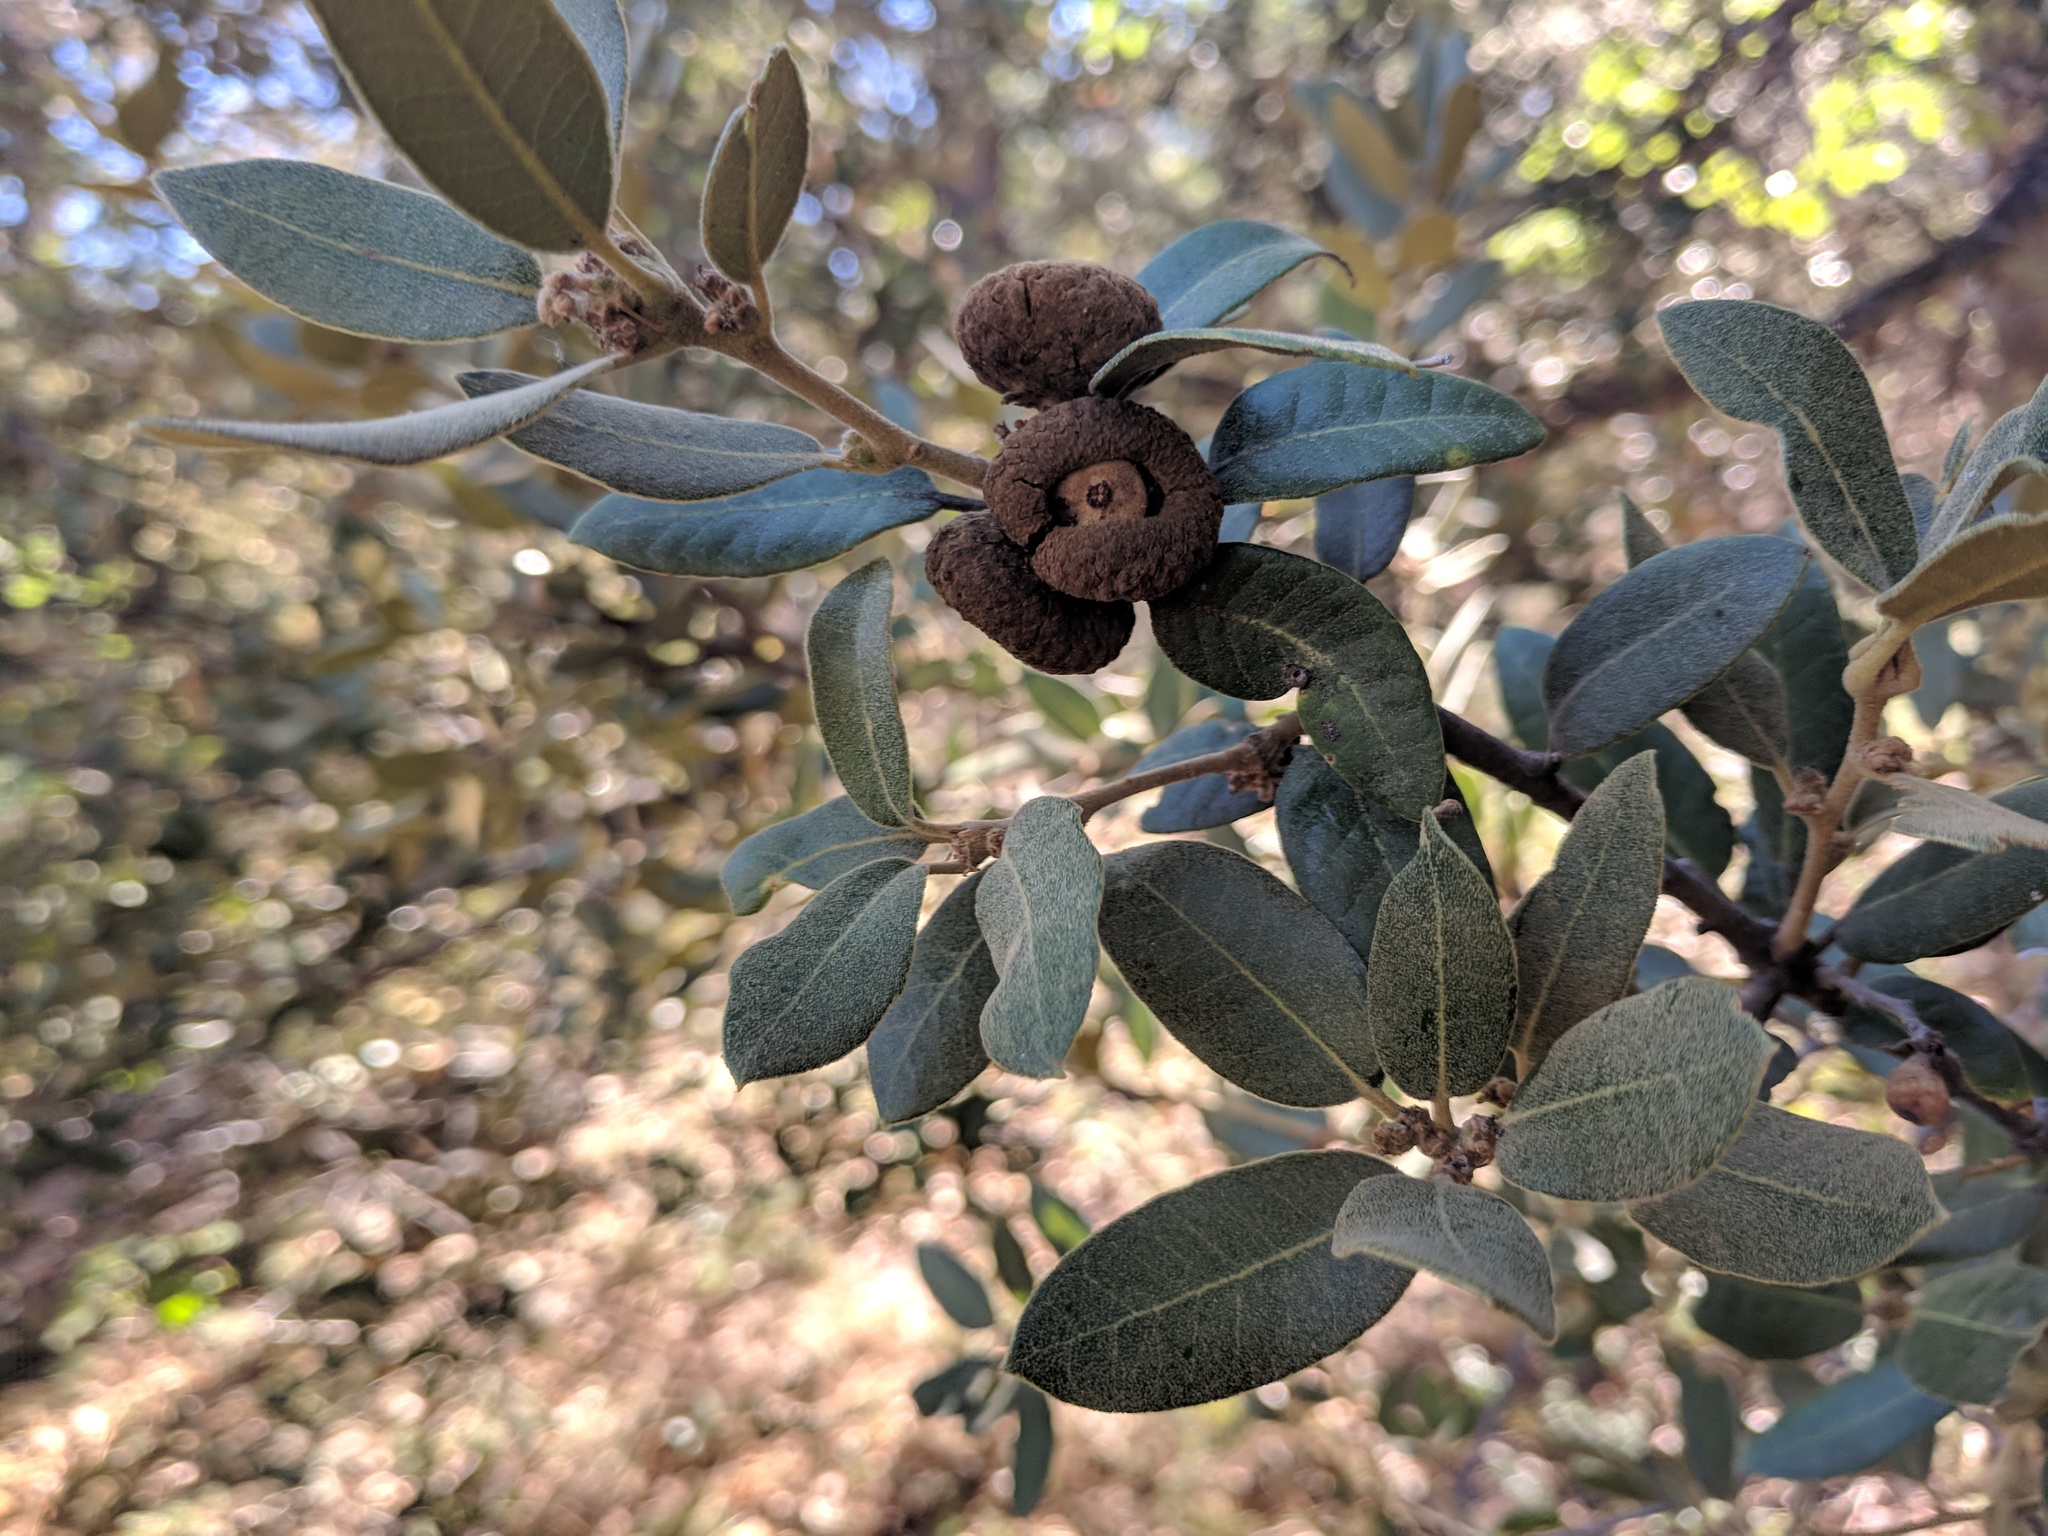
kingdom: Plantae
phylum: Tracheophyta
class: Magnoliopsida
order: Fagales
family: Fagaceae
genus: Quercus
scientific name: Quercus chrysolepis
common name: Canyon live oak
